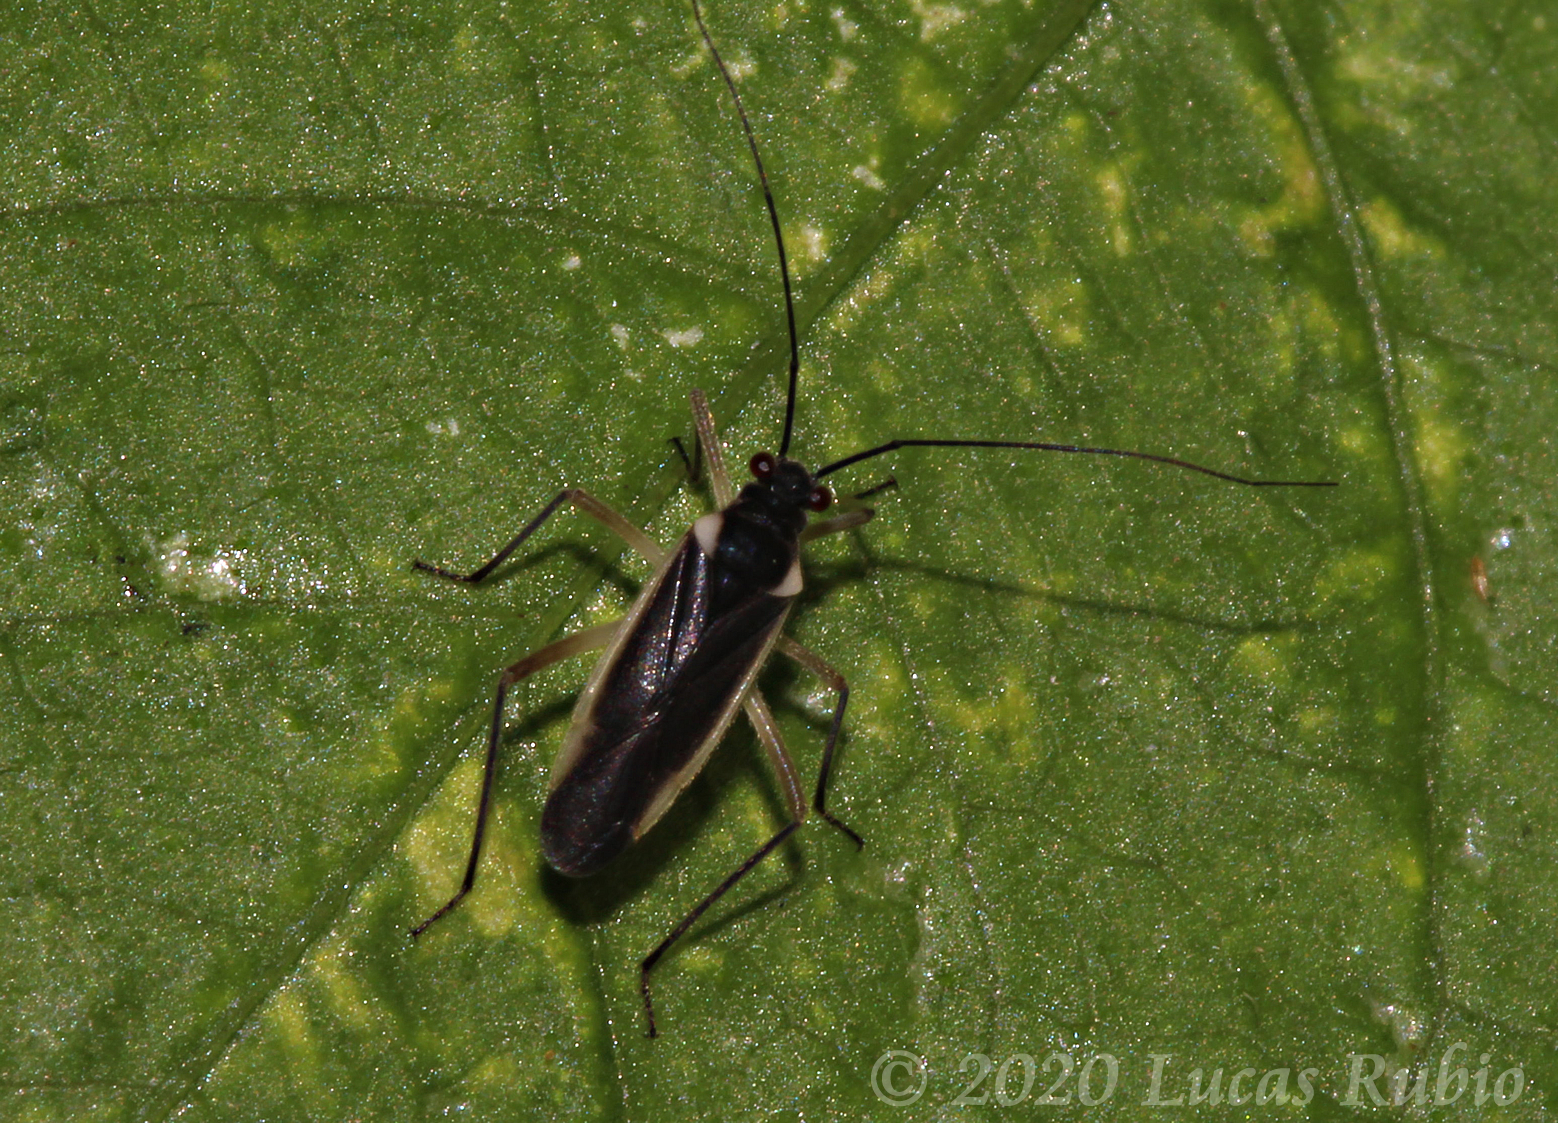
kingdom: Animalia
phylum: Arthropoda
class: Insecta
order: Hemiptera
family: Miridae
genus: Prepops
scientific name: Prepops flavicostus
